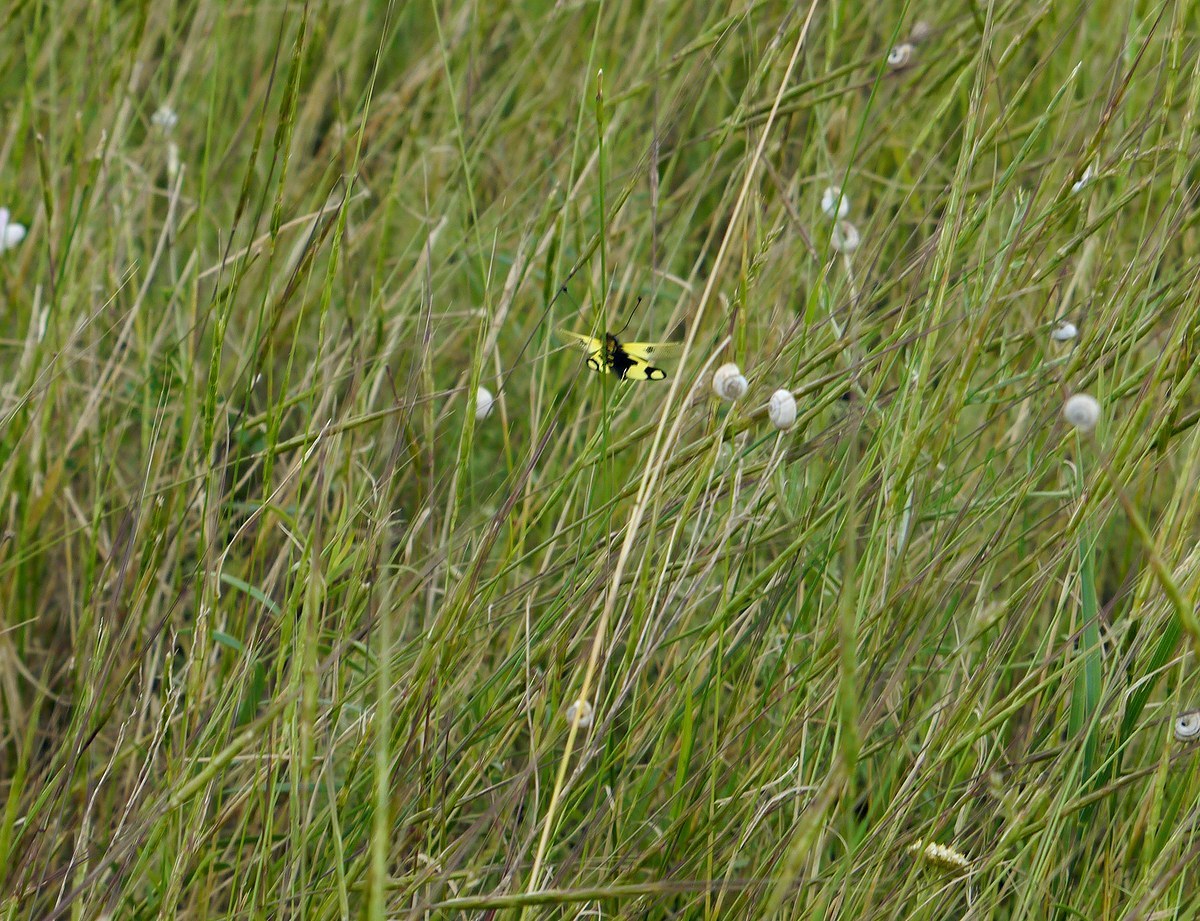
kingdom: Animalia
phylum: Arthropoda
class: Insecta
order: Neuroptera
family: Ascalaphidae
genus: Libelloides
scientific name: Libelloides macaronius
